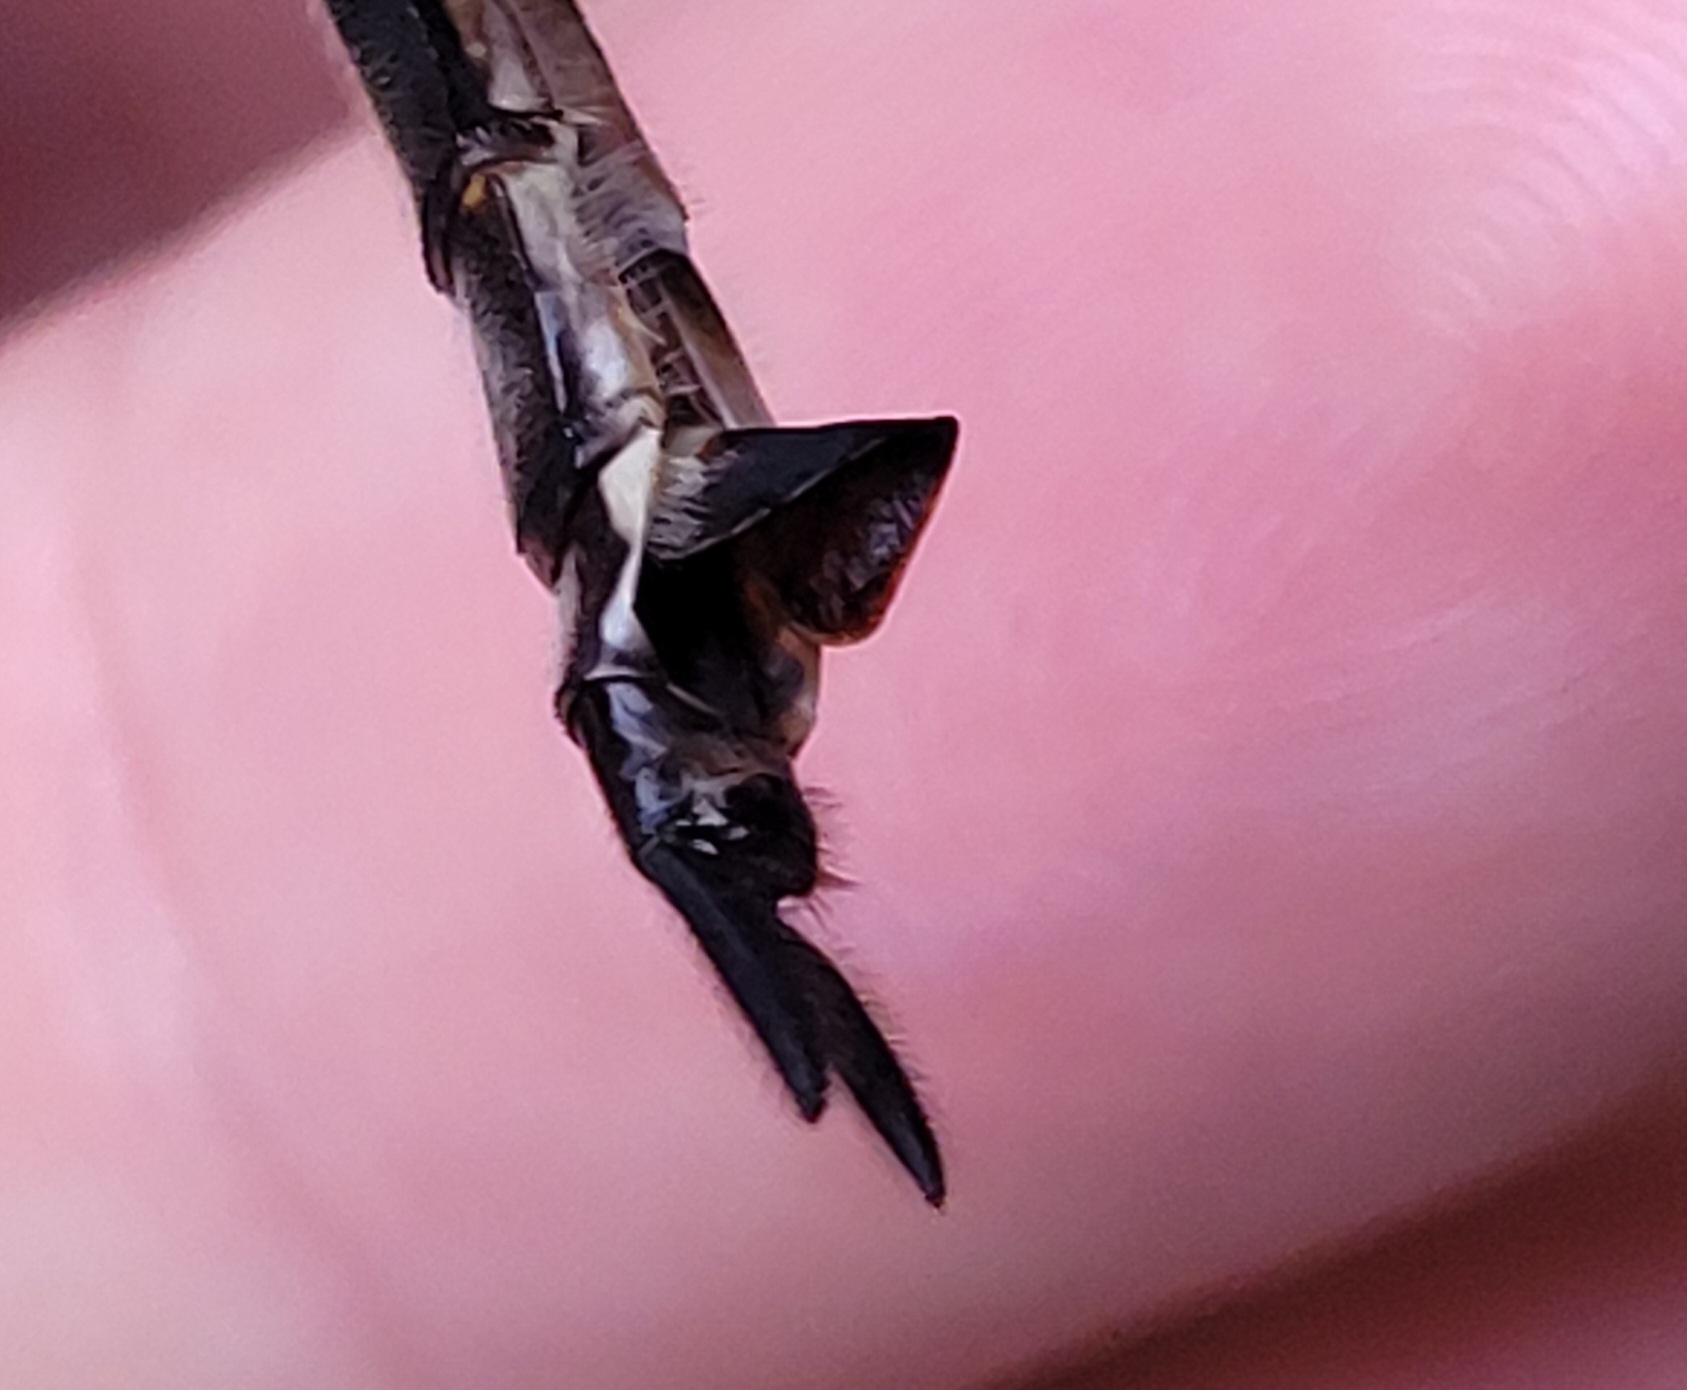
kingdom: Animalia
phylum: Arthropoda
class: Insecta
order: Odonata
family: Corduliidae
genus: Somatochlora
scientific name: Somatochlora elongata
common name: Ski-tipped emerald
